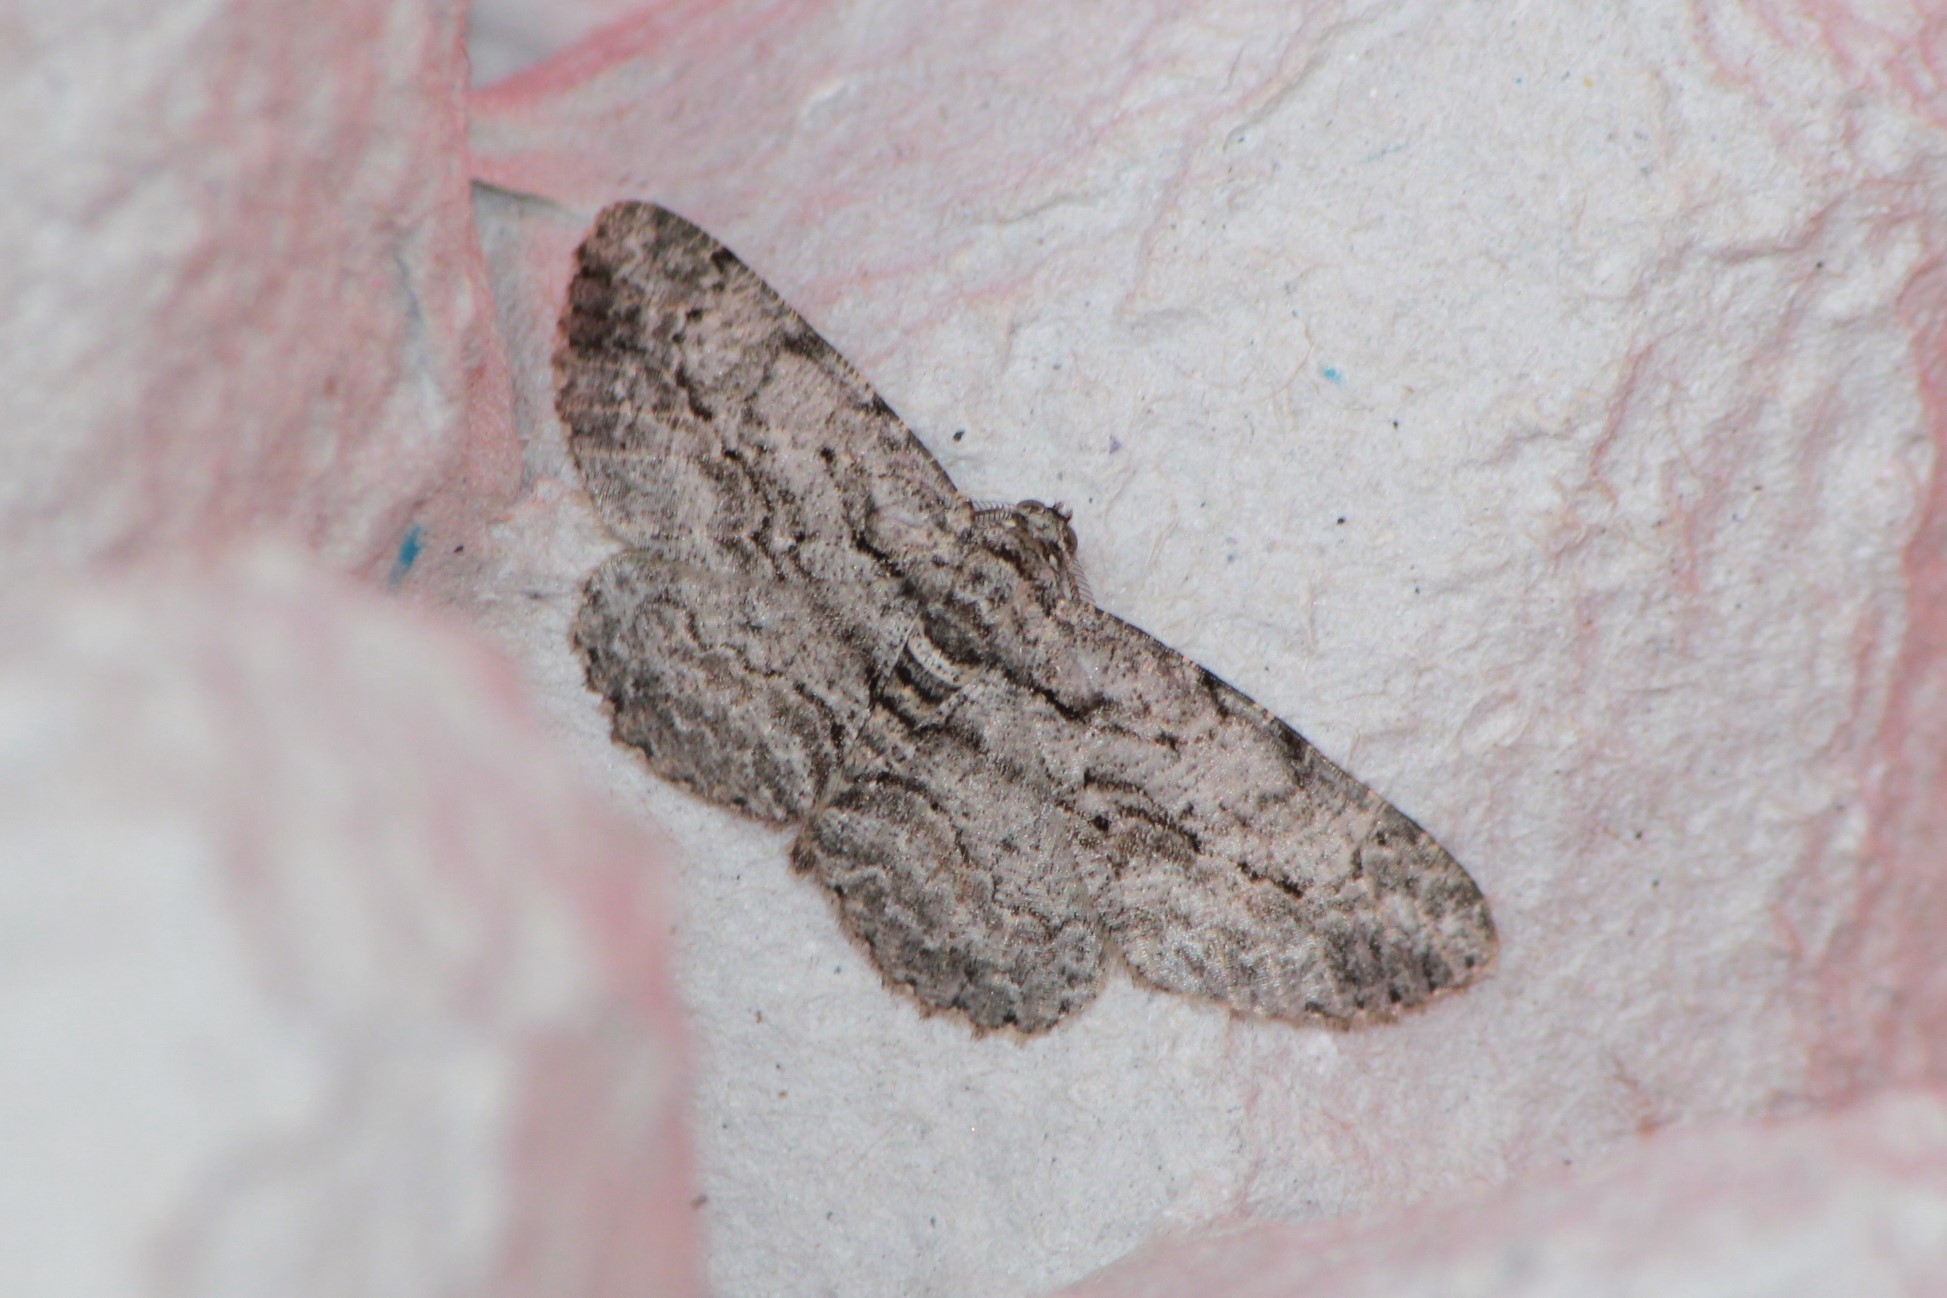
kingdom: Animalia
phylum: Arthropoda
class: Insecta
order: Lepidoptera
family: Geometridae
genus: Anavitrinella
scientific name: Anavitrinella pampinaria
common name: Common gray
